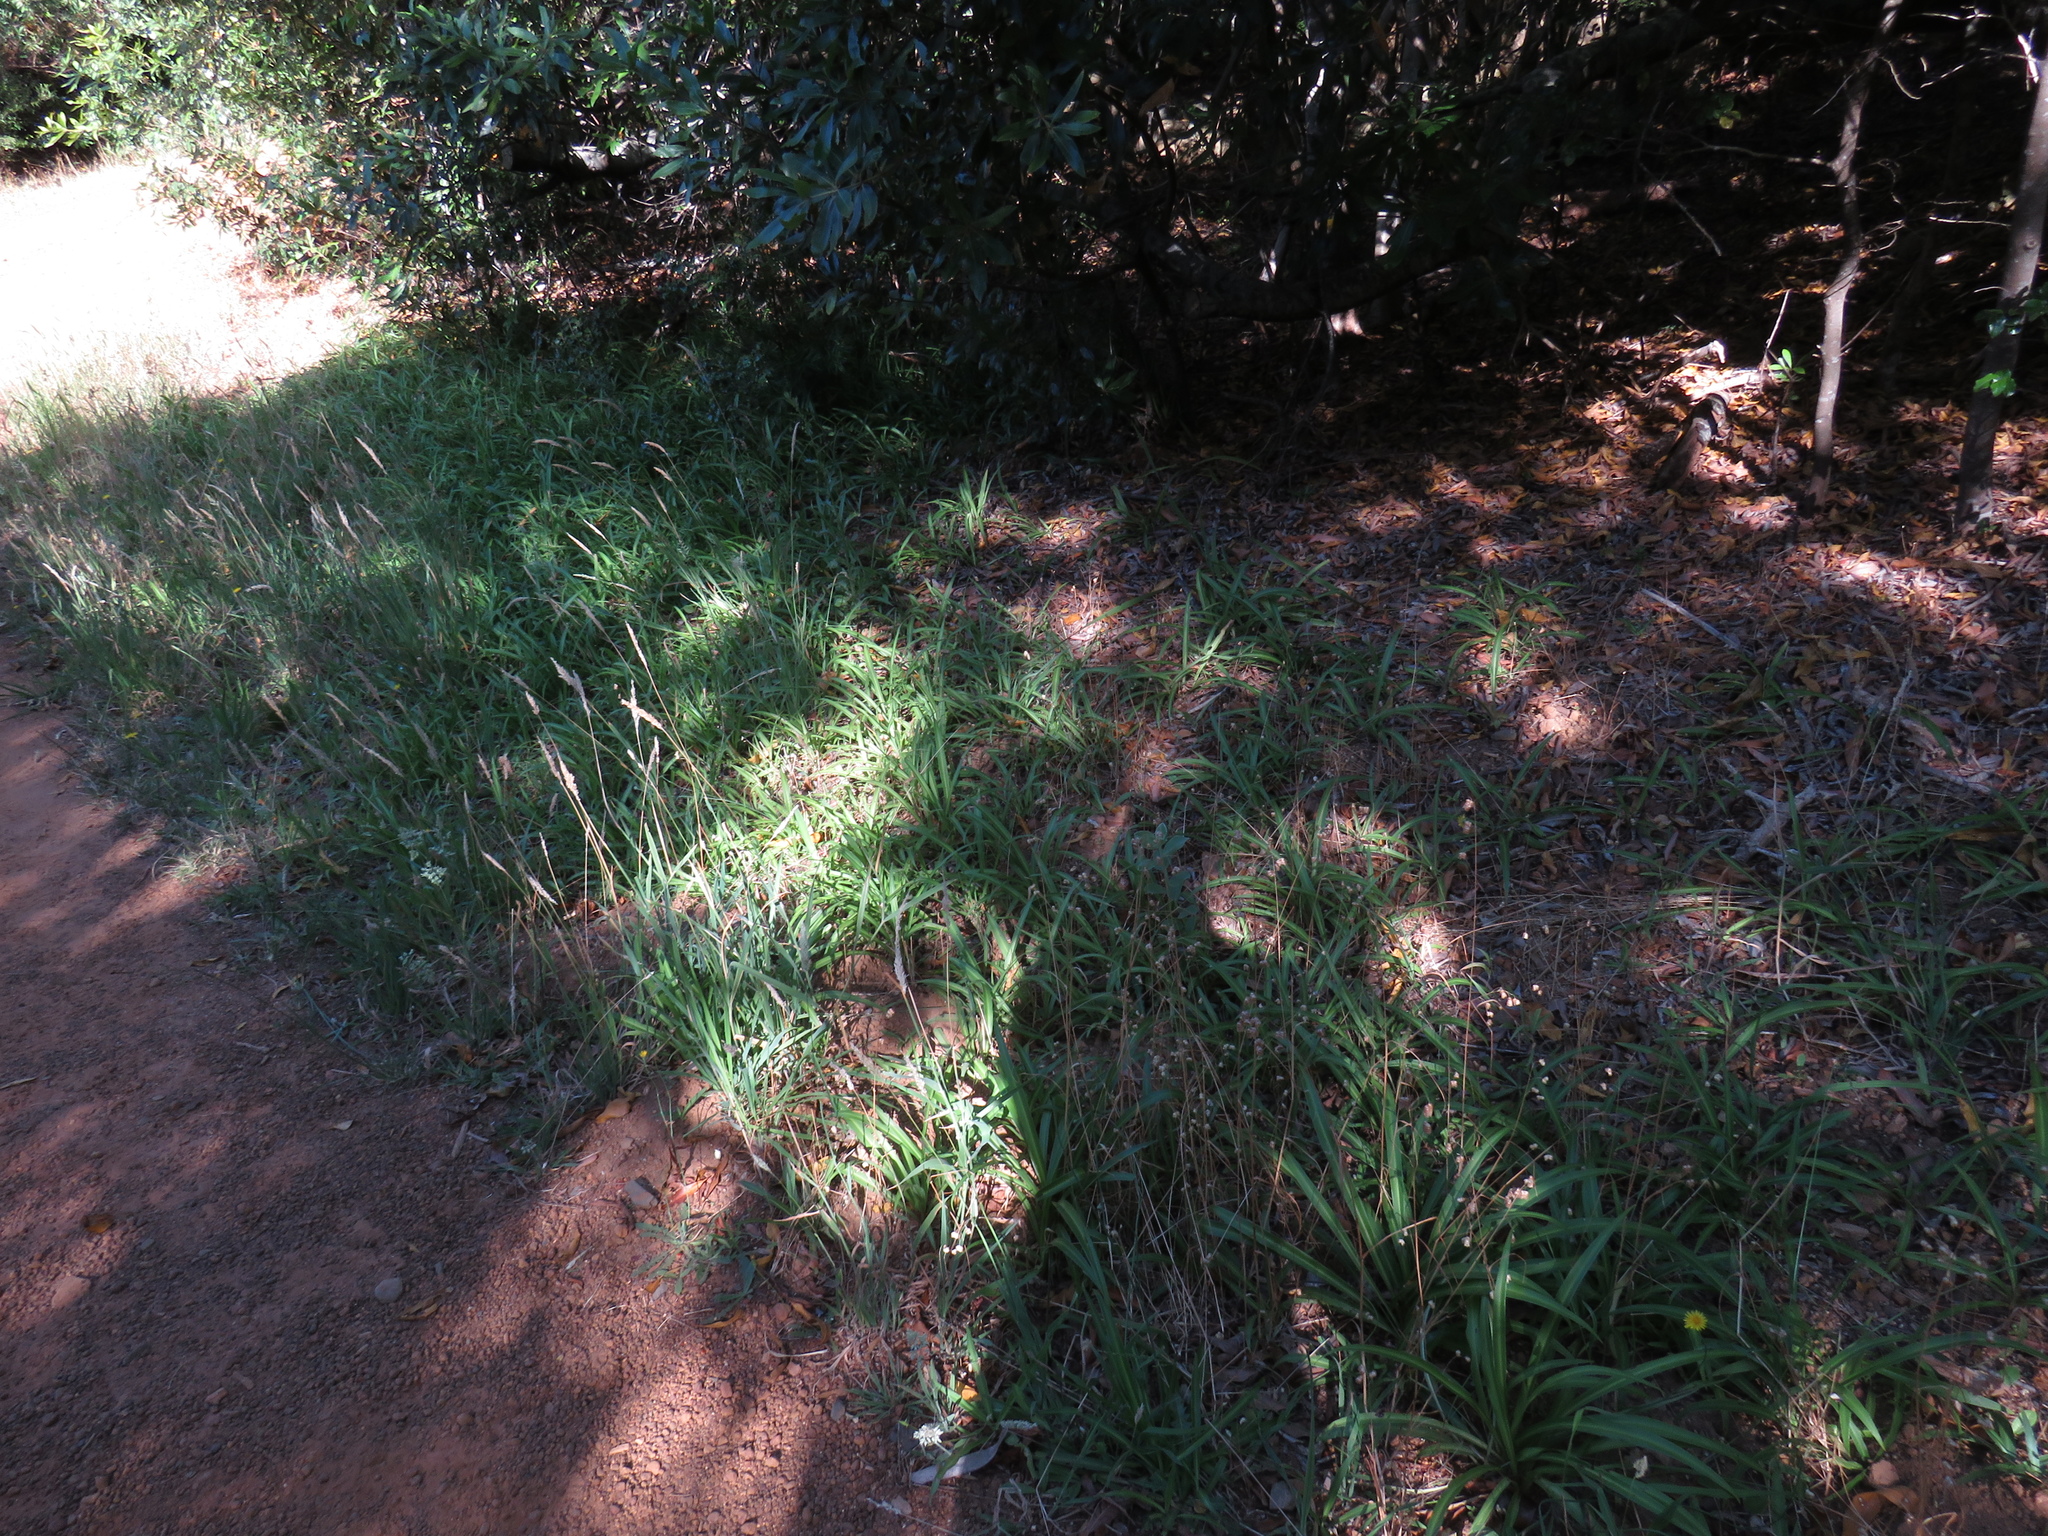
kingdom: Plantae
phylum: Tracheophyta
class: Liliopsida
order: Asparagales
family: Asparagaceae
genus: Chlorophytum
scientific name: Chlorophytum comosum
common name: Spider plant
